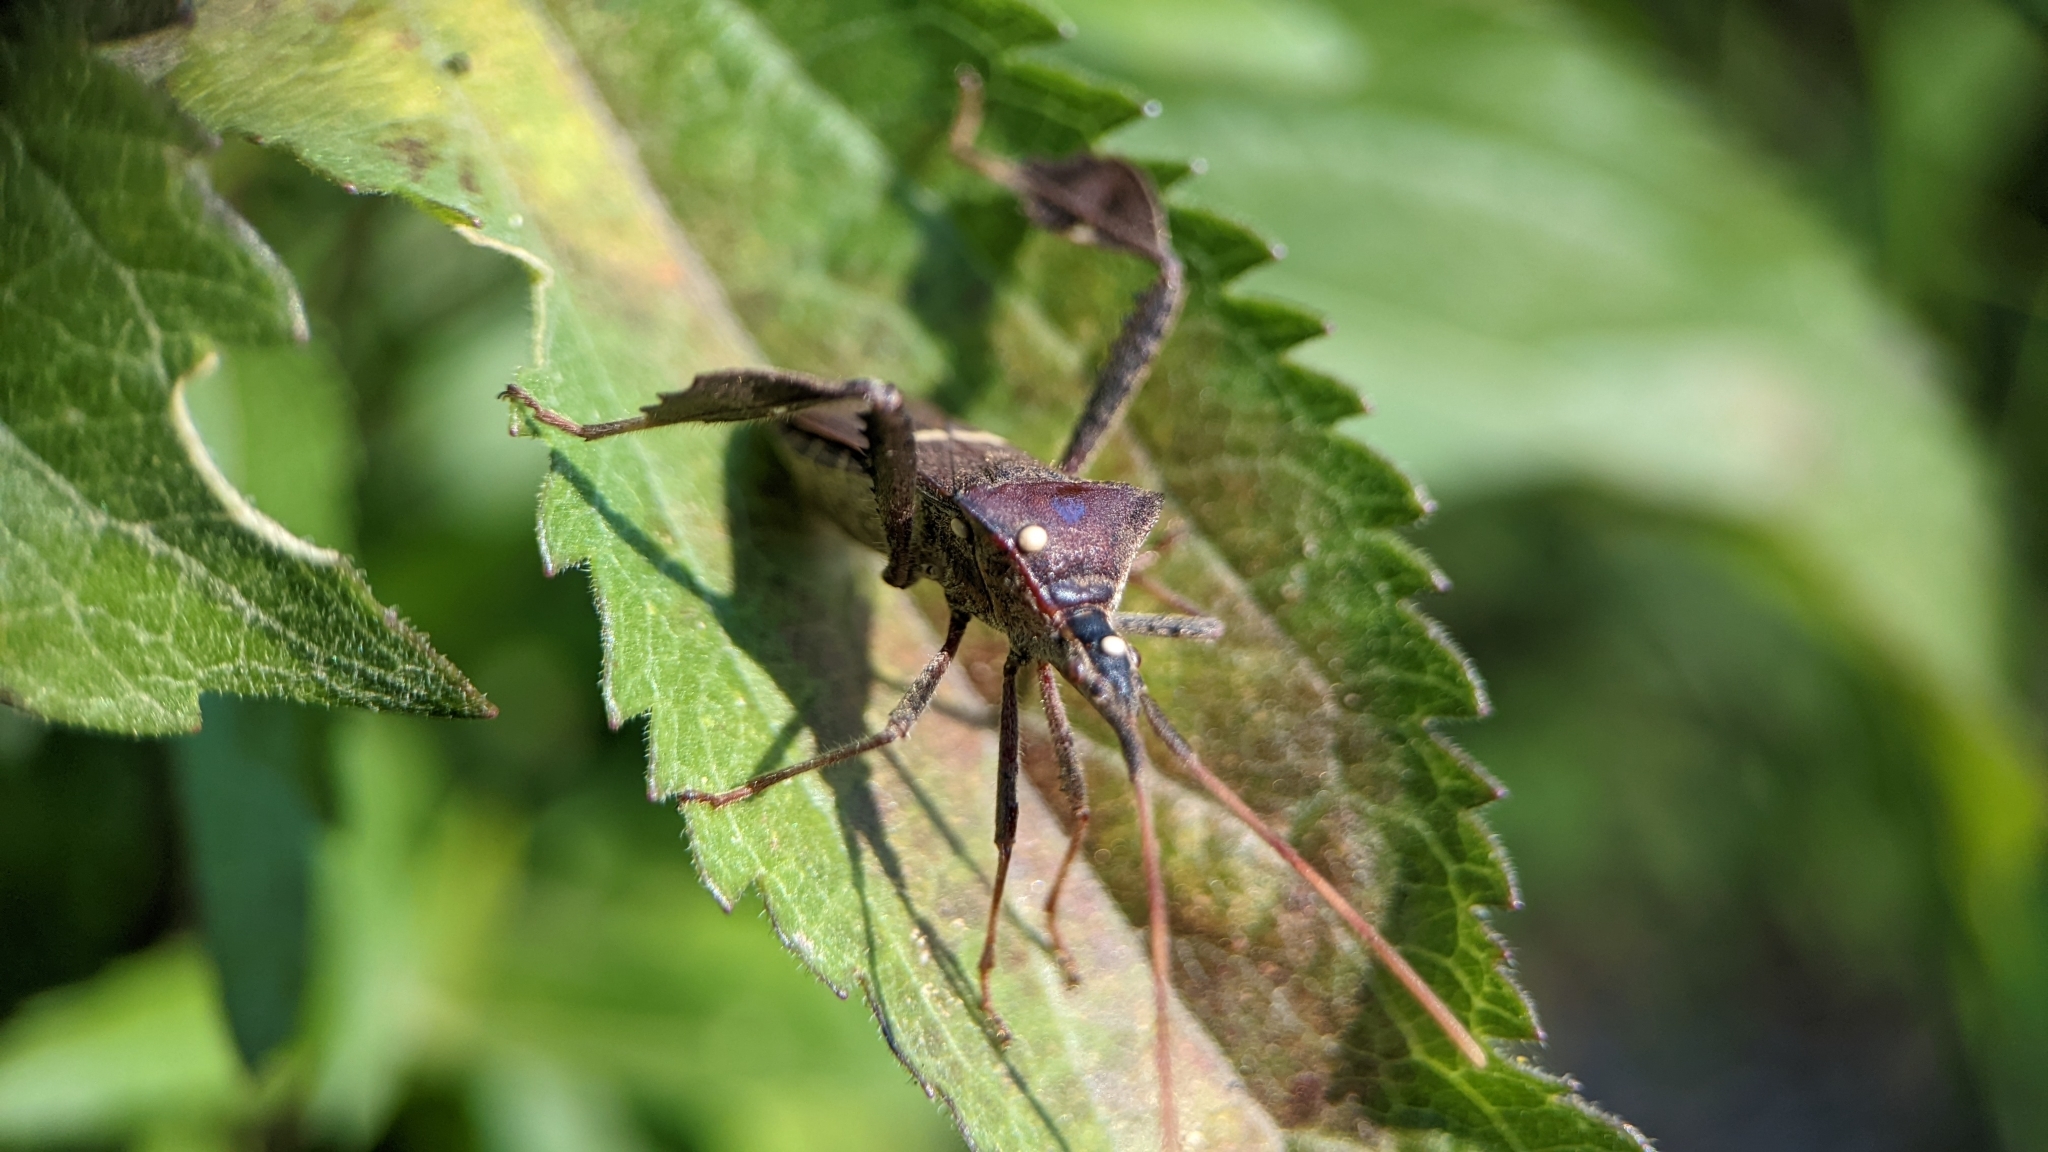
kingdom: Animalia
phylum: Arthropoda
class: Insecta
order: Hemiptera
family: Coreidae
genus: Leptoglossus
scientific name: Leptoglossus phyllopus
